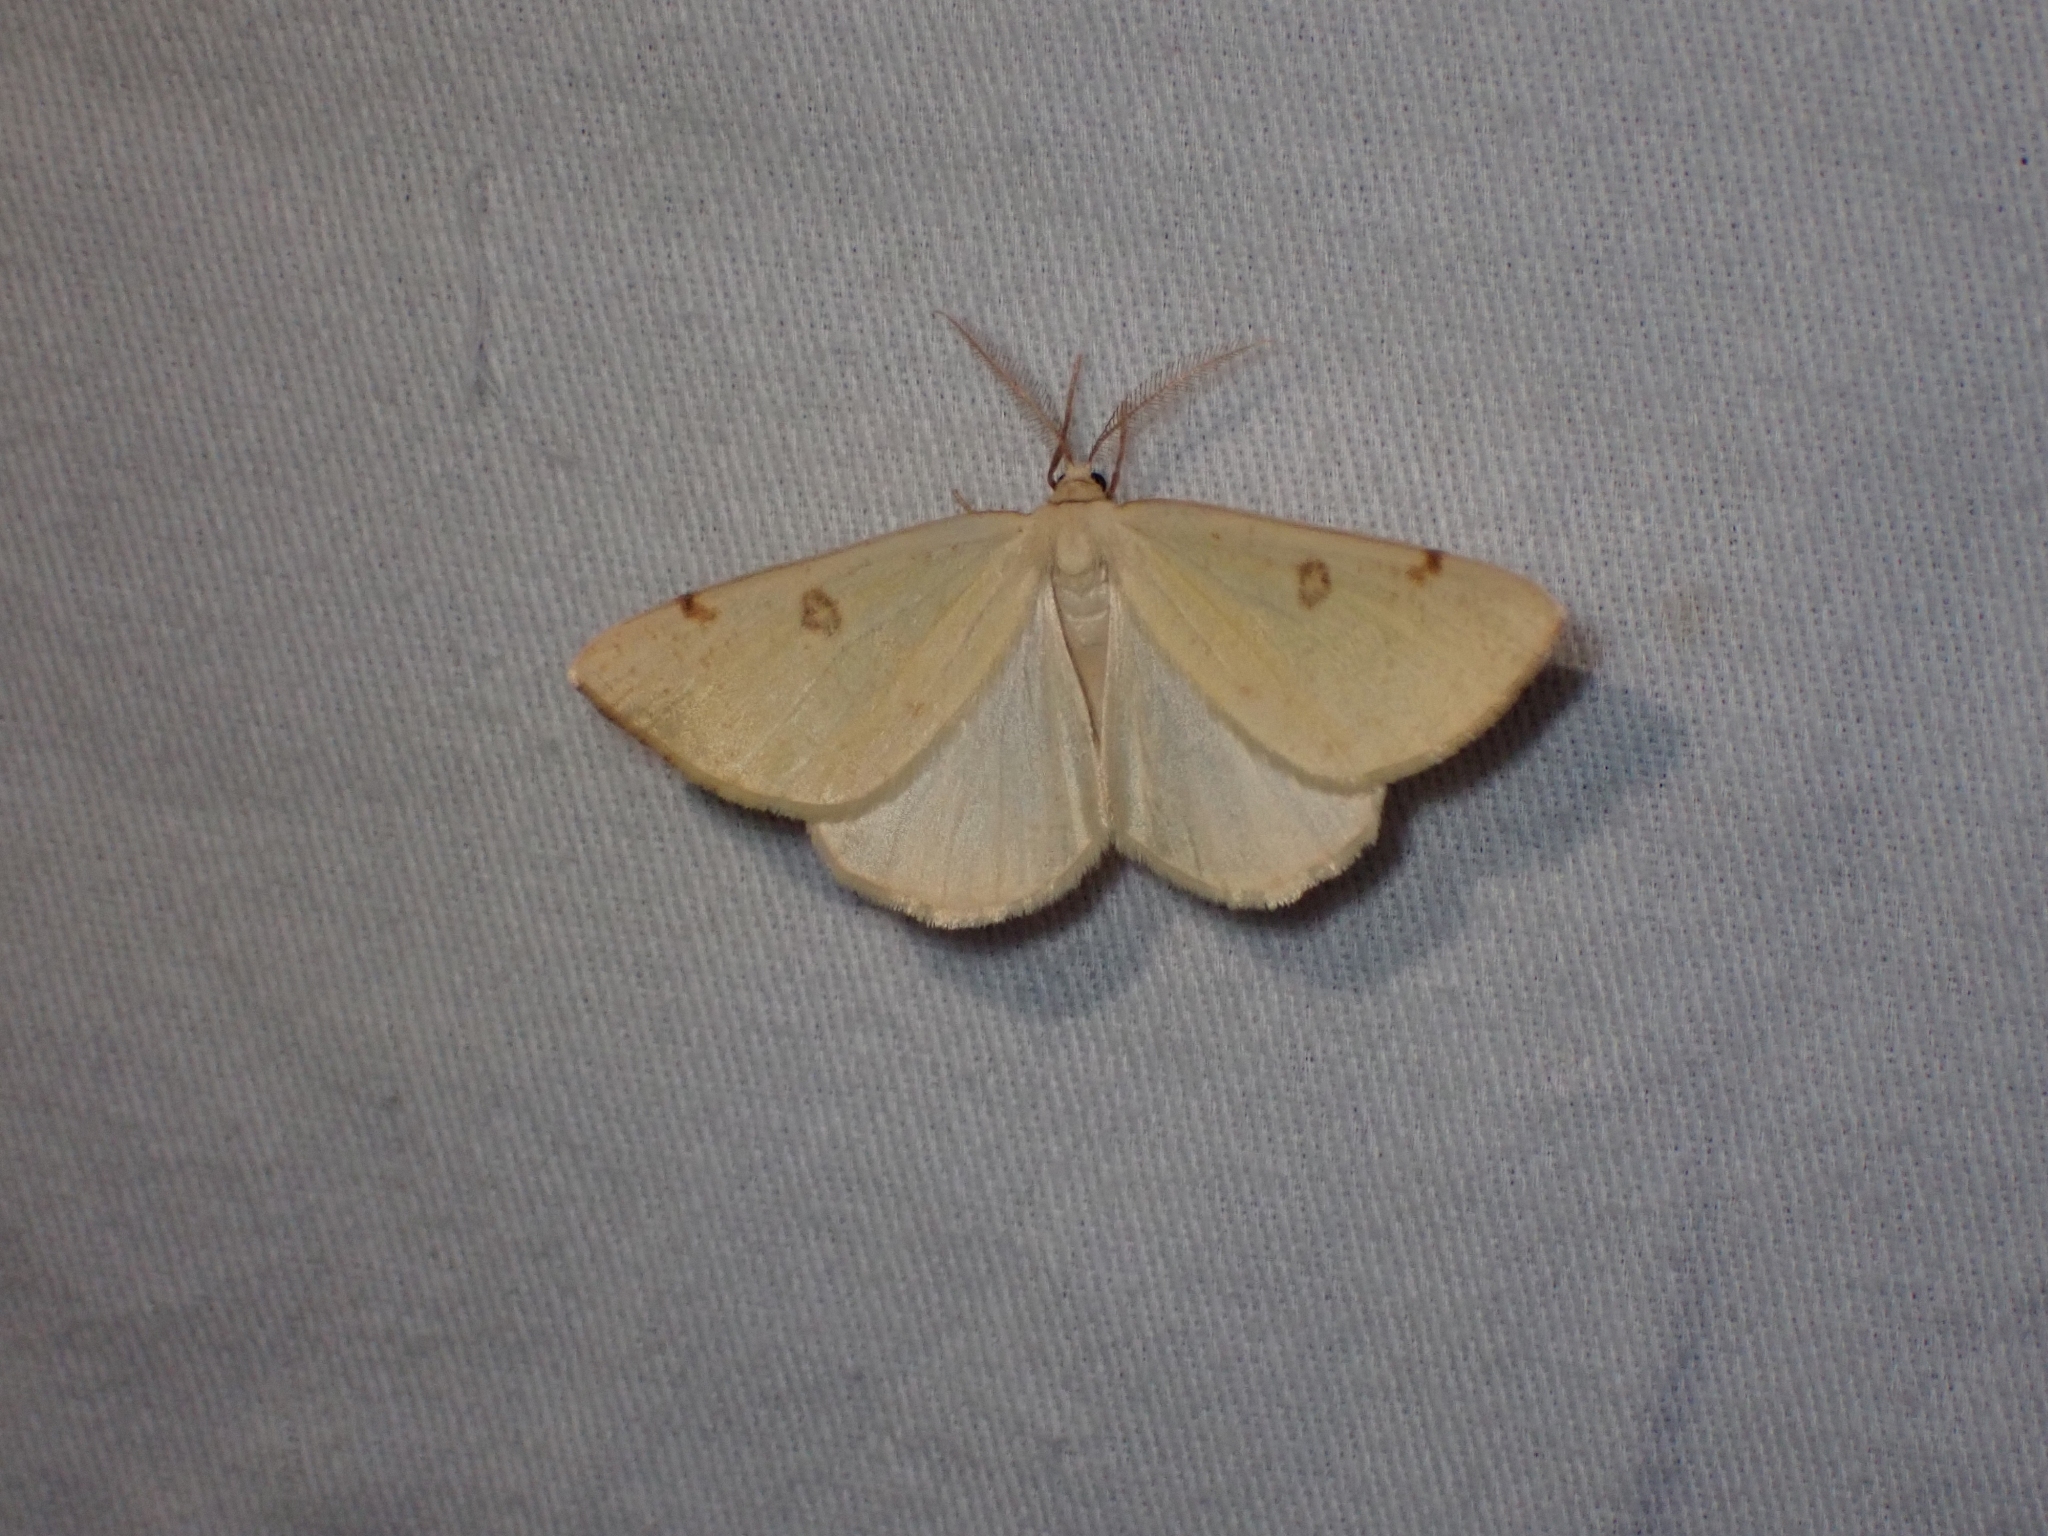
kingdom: Animalia
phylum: Arthropoda
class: Insecta
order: Lepidoptera
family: Geometridae
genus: Hesperumia
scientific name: Hesperumia sulphuraria
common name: Sulphur moth
